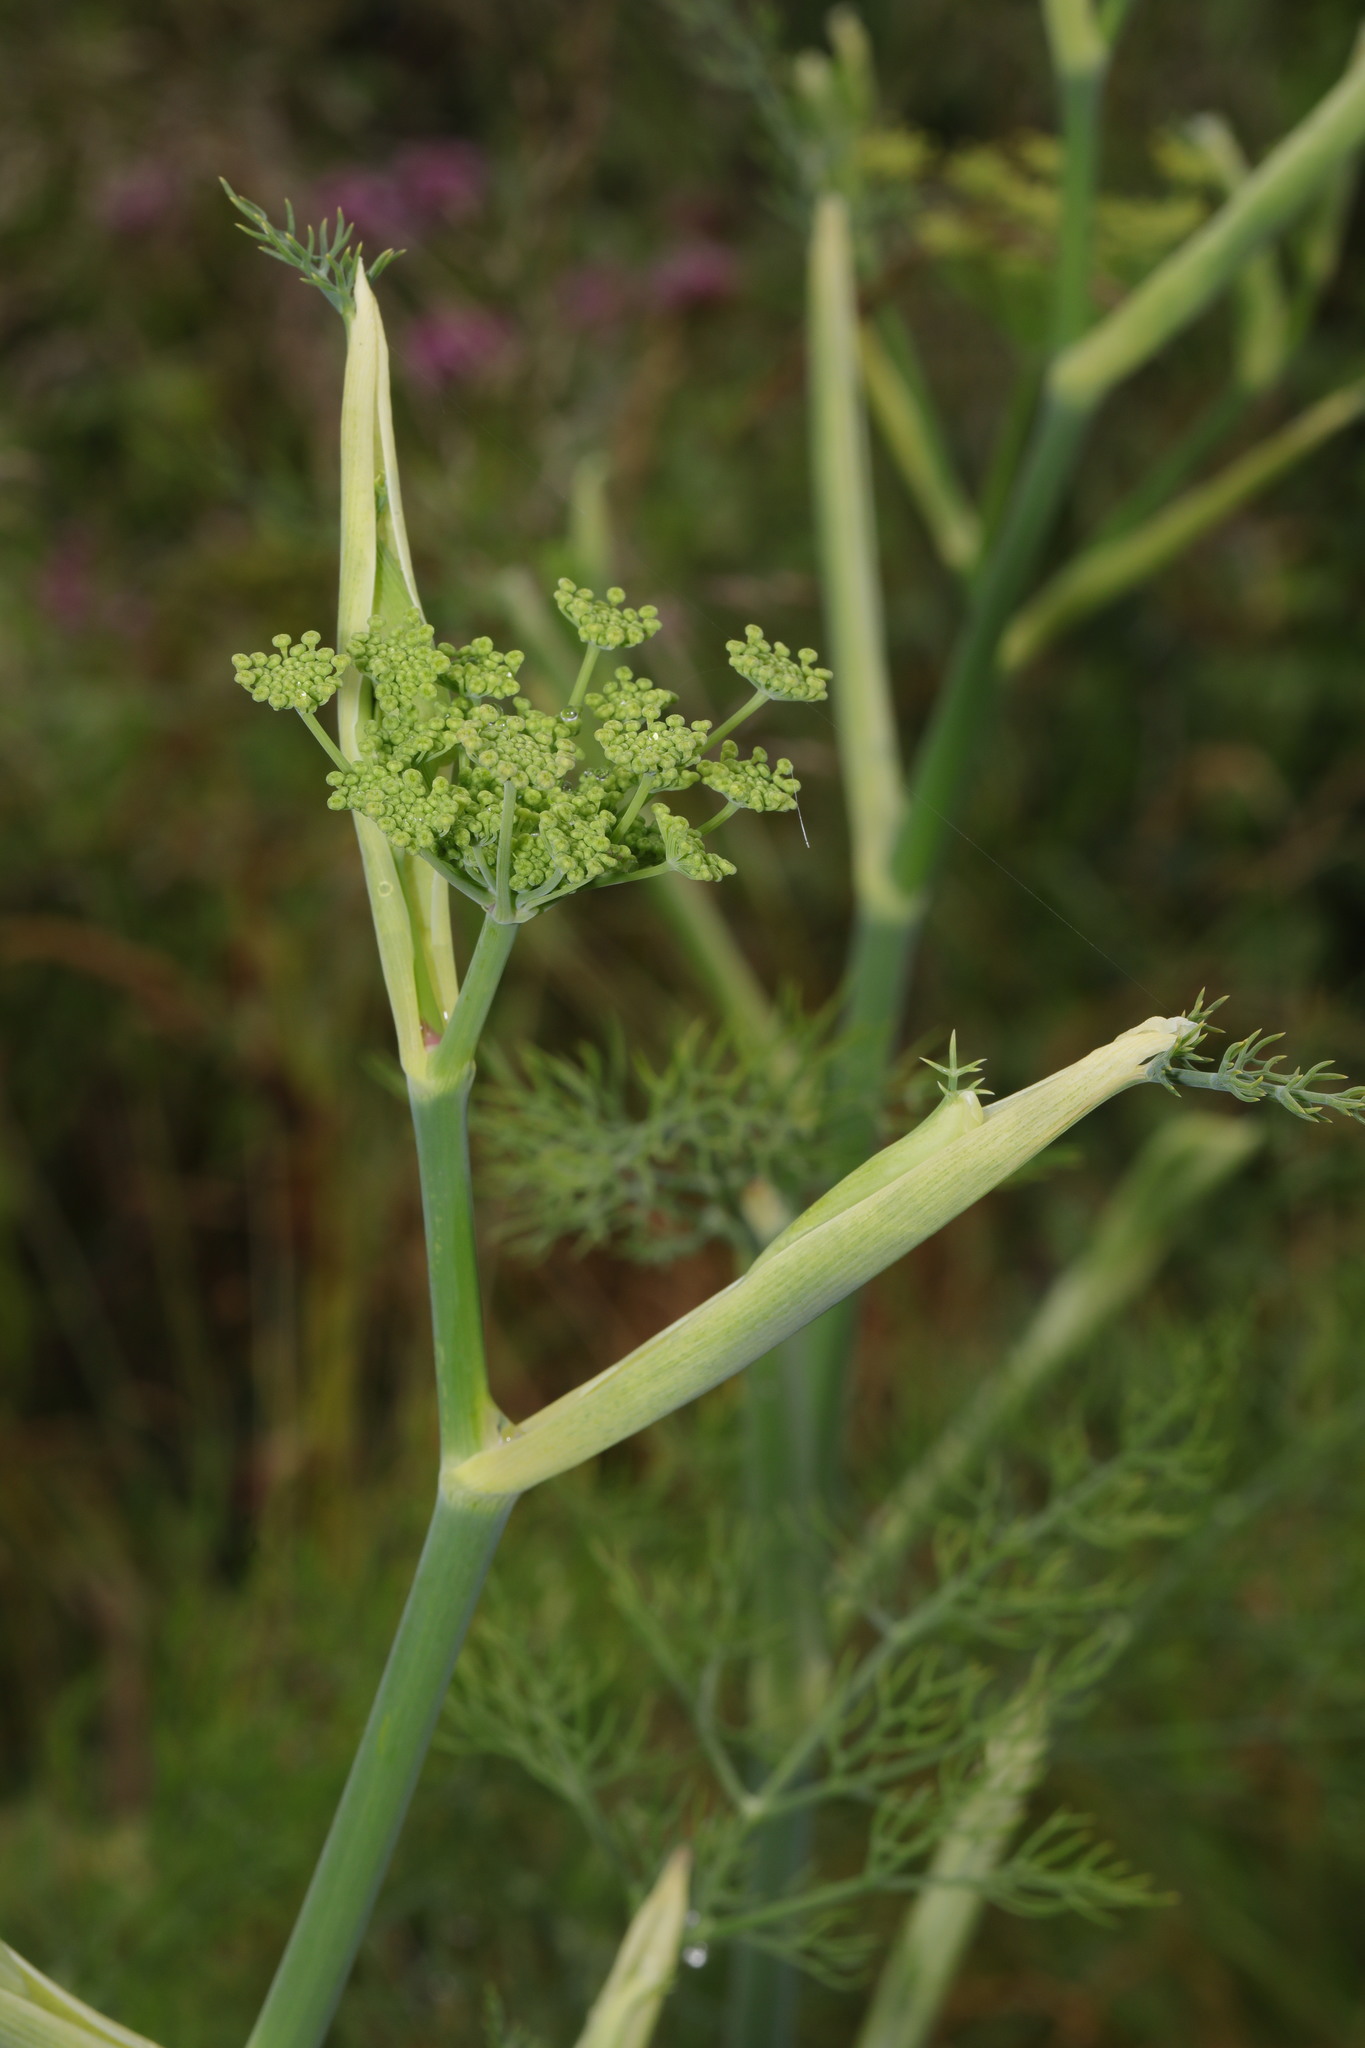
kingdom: Plantae
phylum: Tracheophyta
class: Magnoliopsida
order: Apiales
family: Apiaceae
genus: Foeniculum
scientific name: Foeniculum vulgare
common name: Fennel
